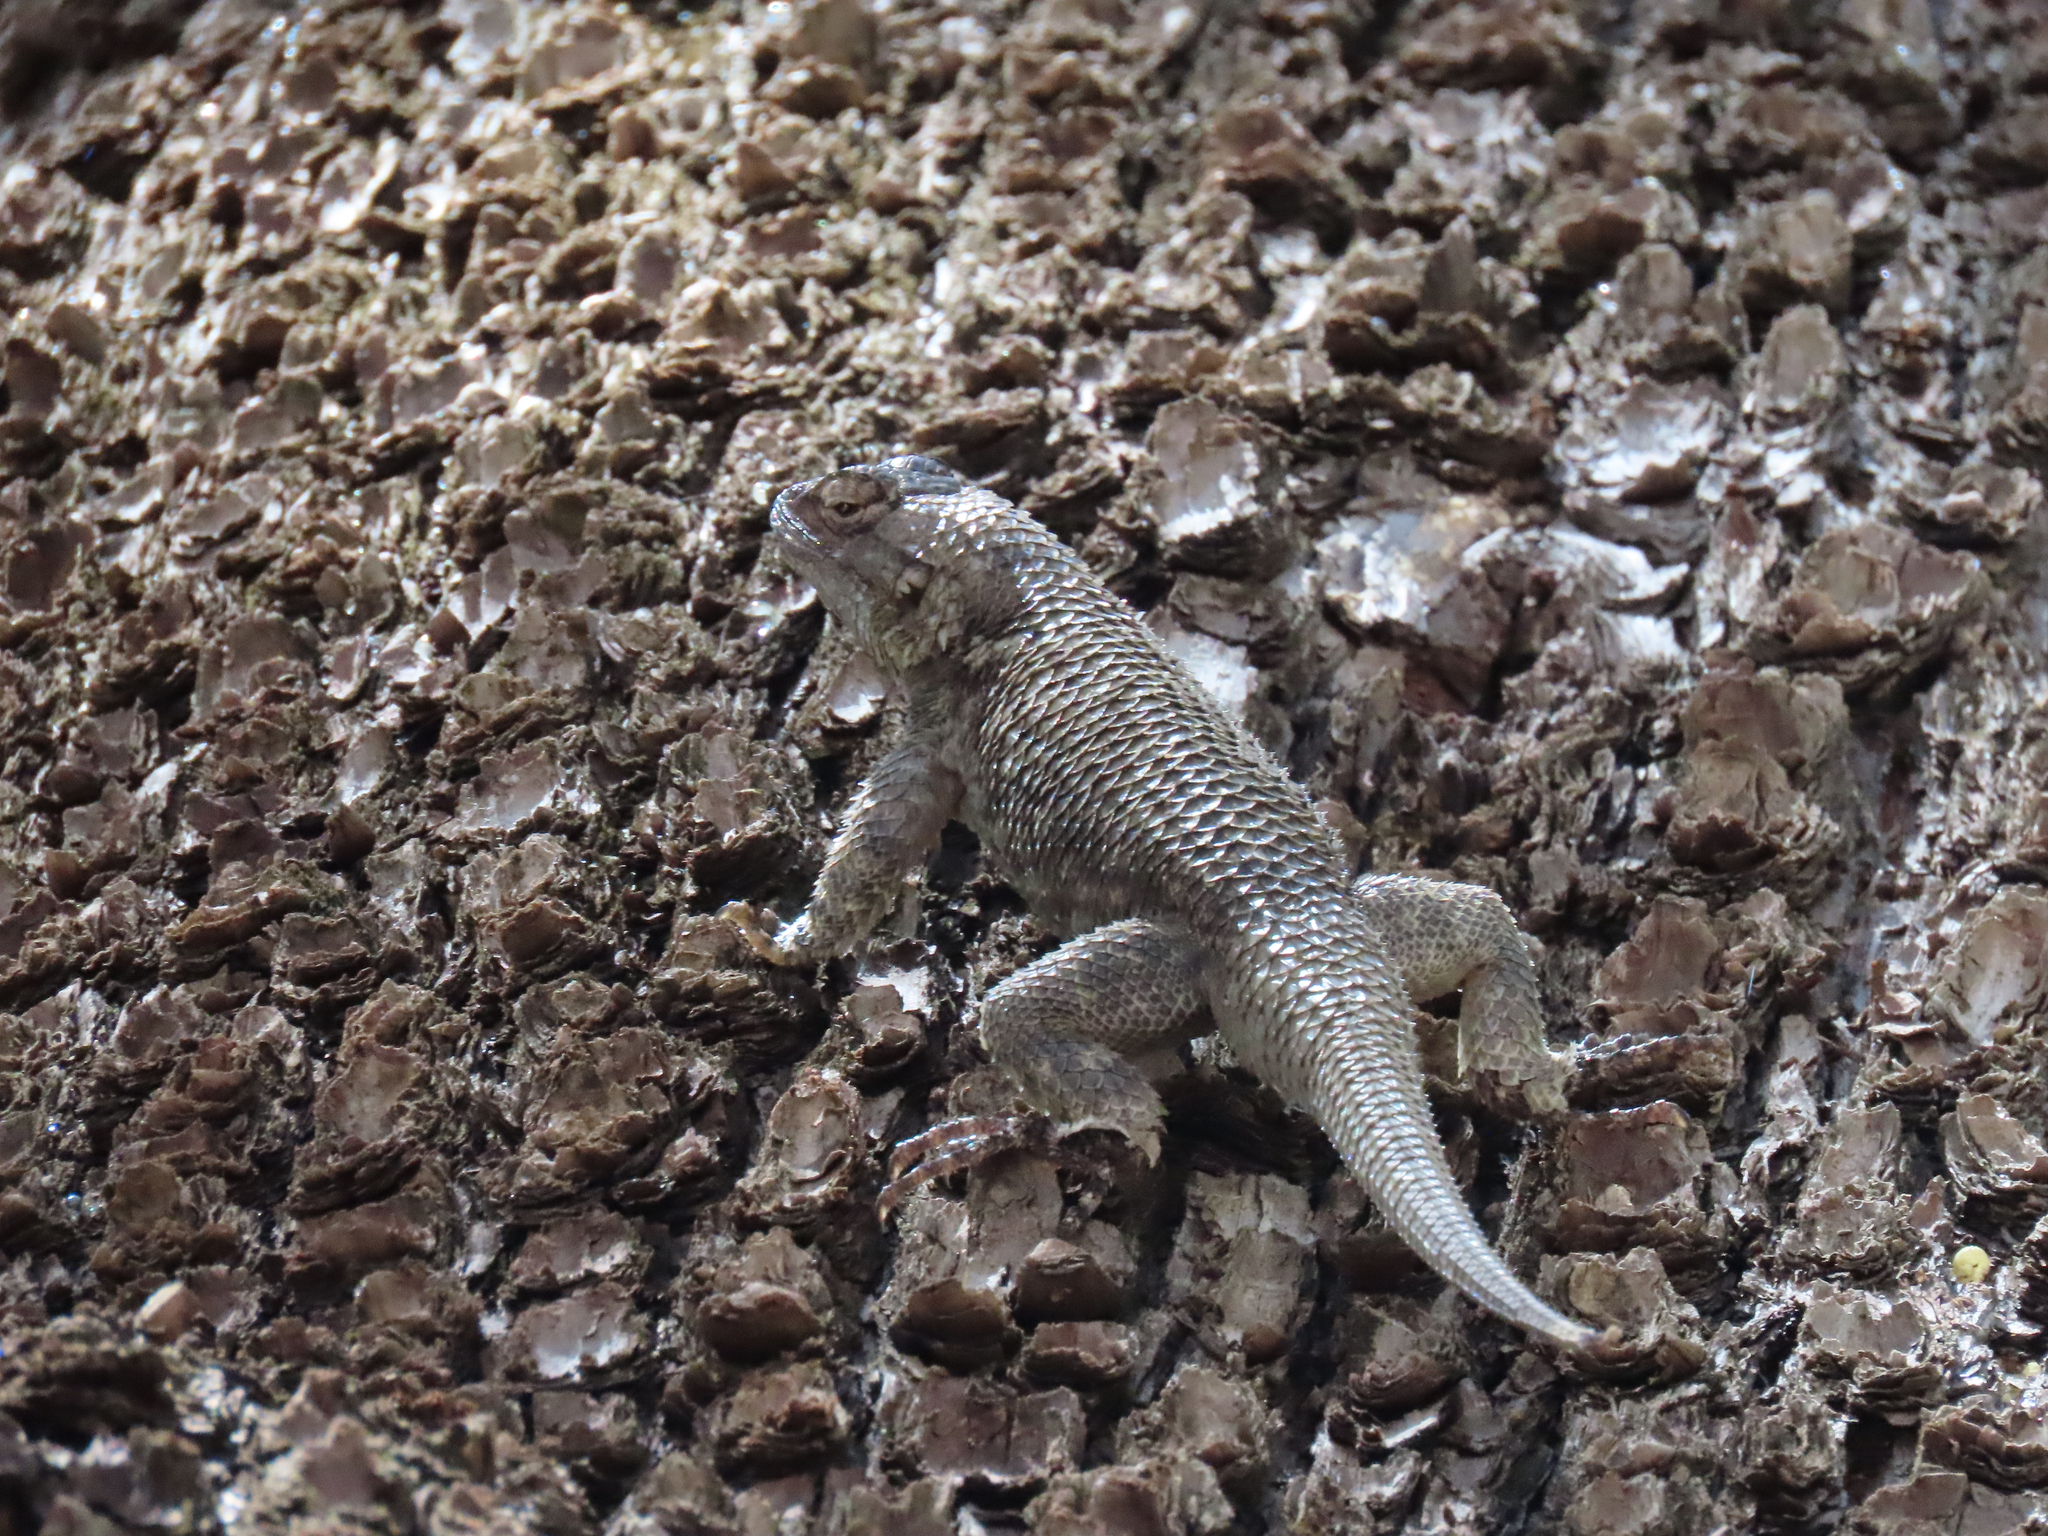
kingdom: Animalia
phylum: Chordata
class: Squamata
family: Phrynosomatidae
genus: Sceloporus
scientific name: Sceloporus clarkii
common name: Clark's spiny lizard
